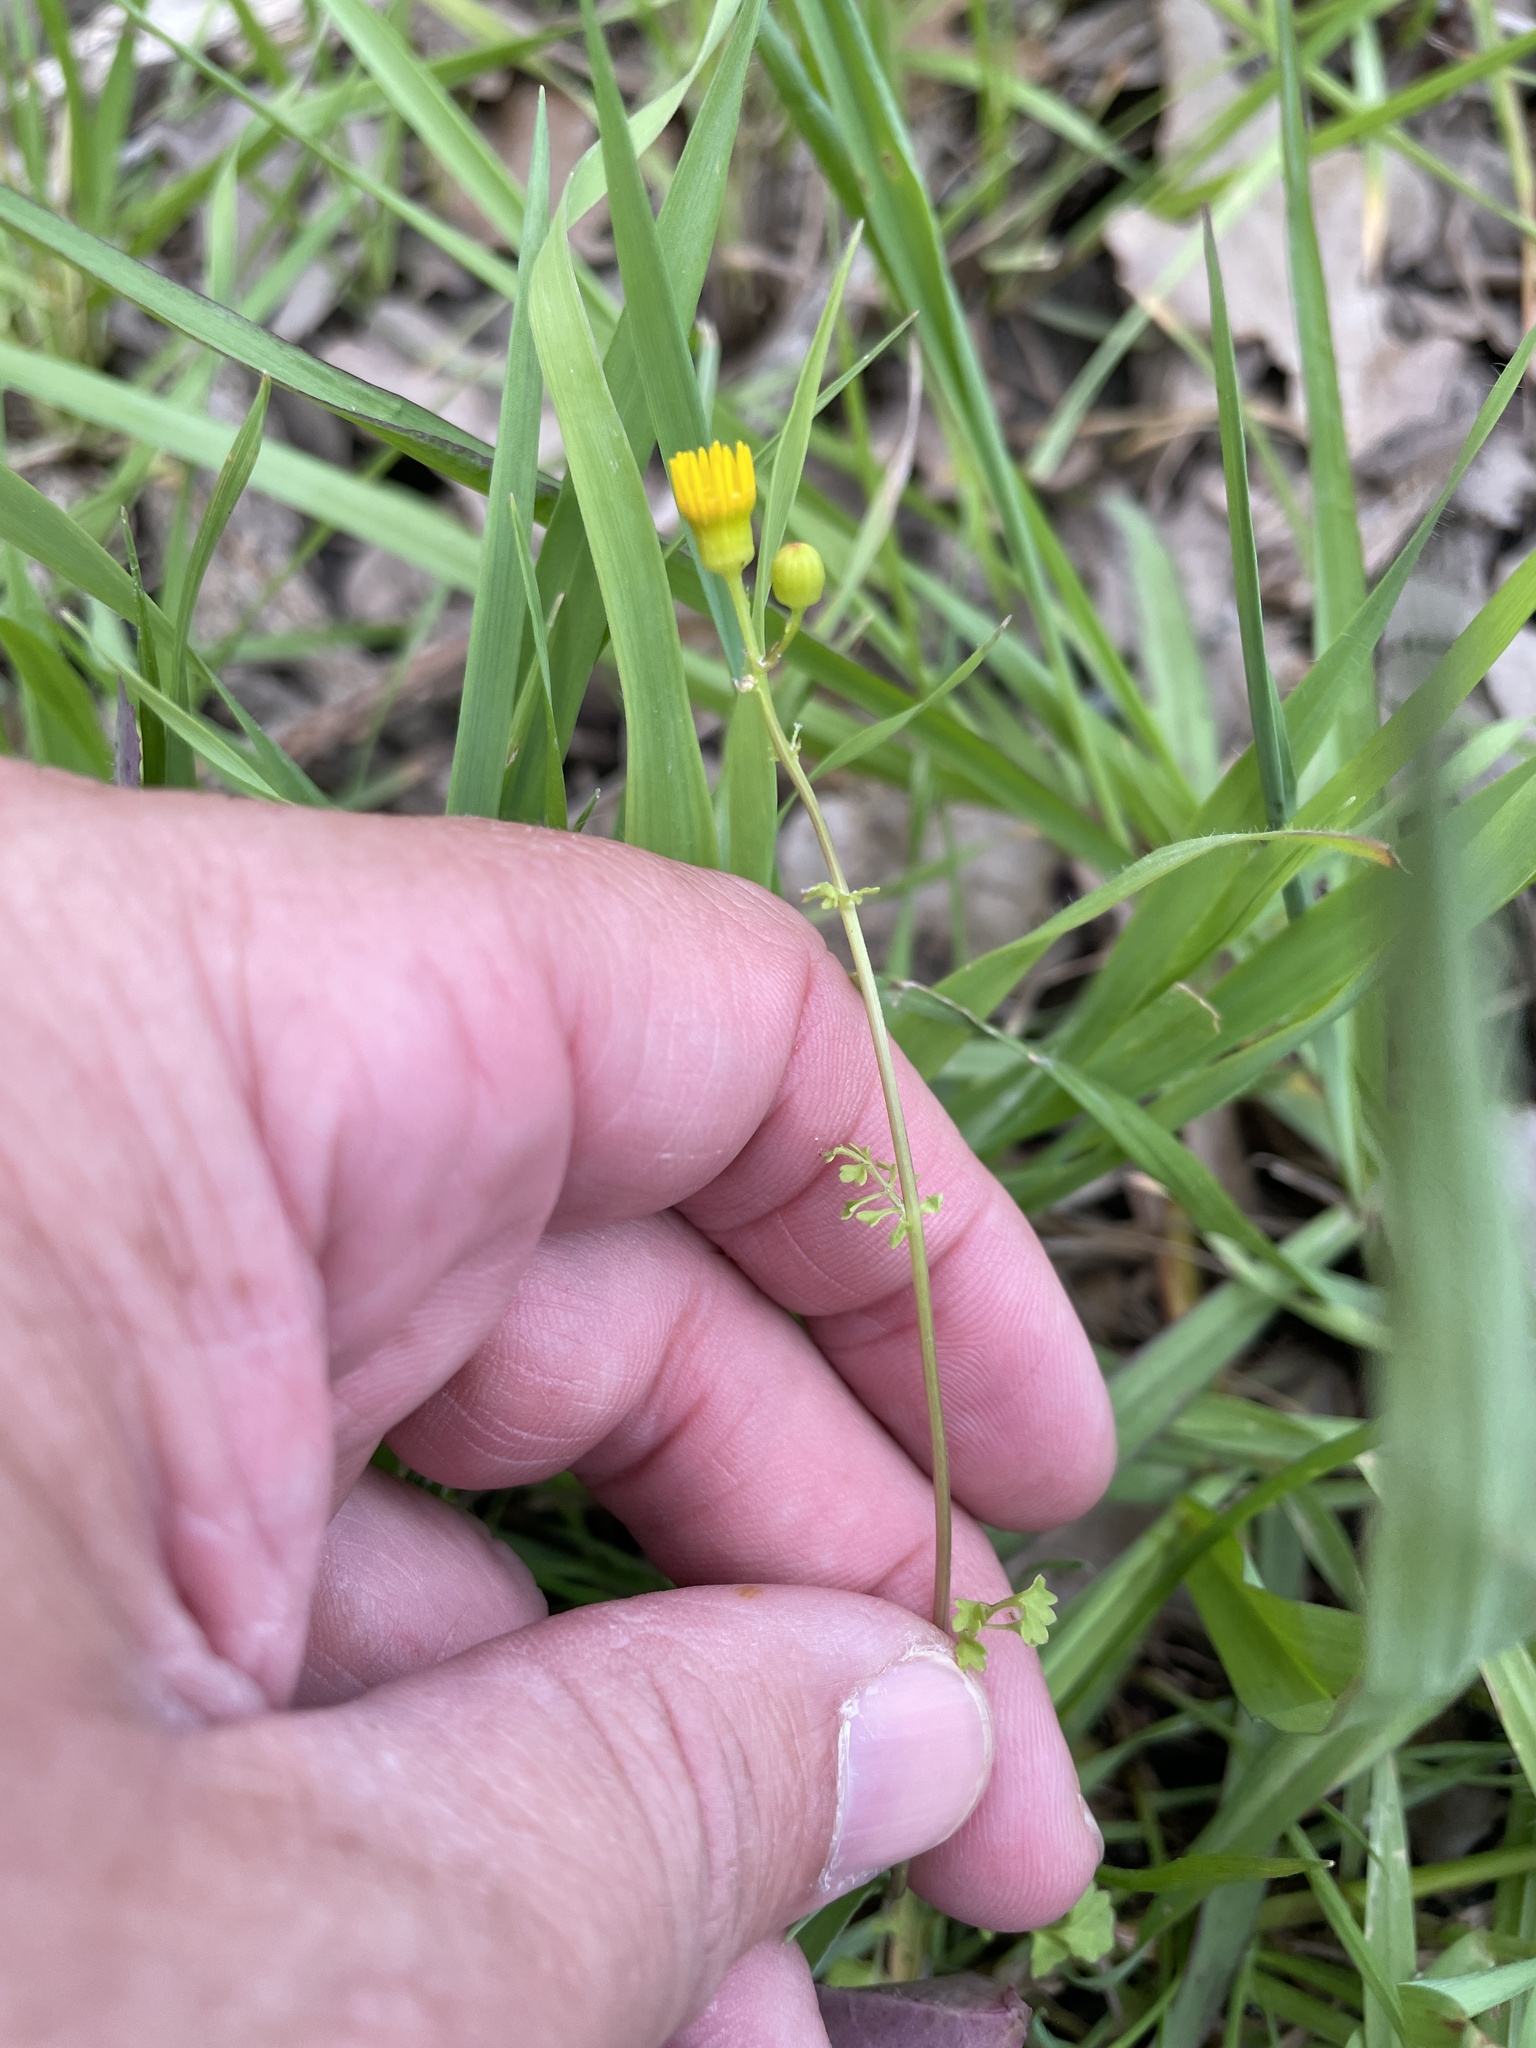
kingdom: Plantae
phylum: Tracheophyta
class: Magnoliopsida
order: Asterales
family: Asteraceae
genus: Packera
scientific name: Packera tampicana
